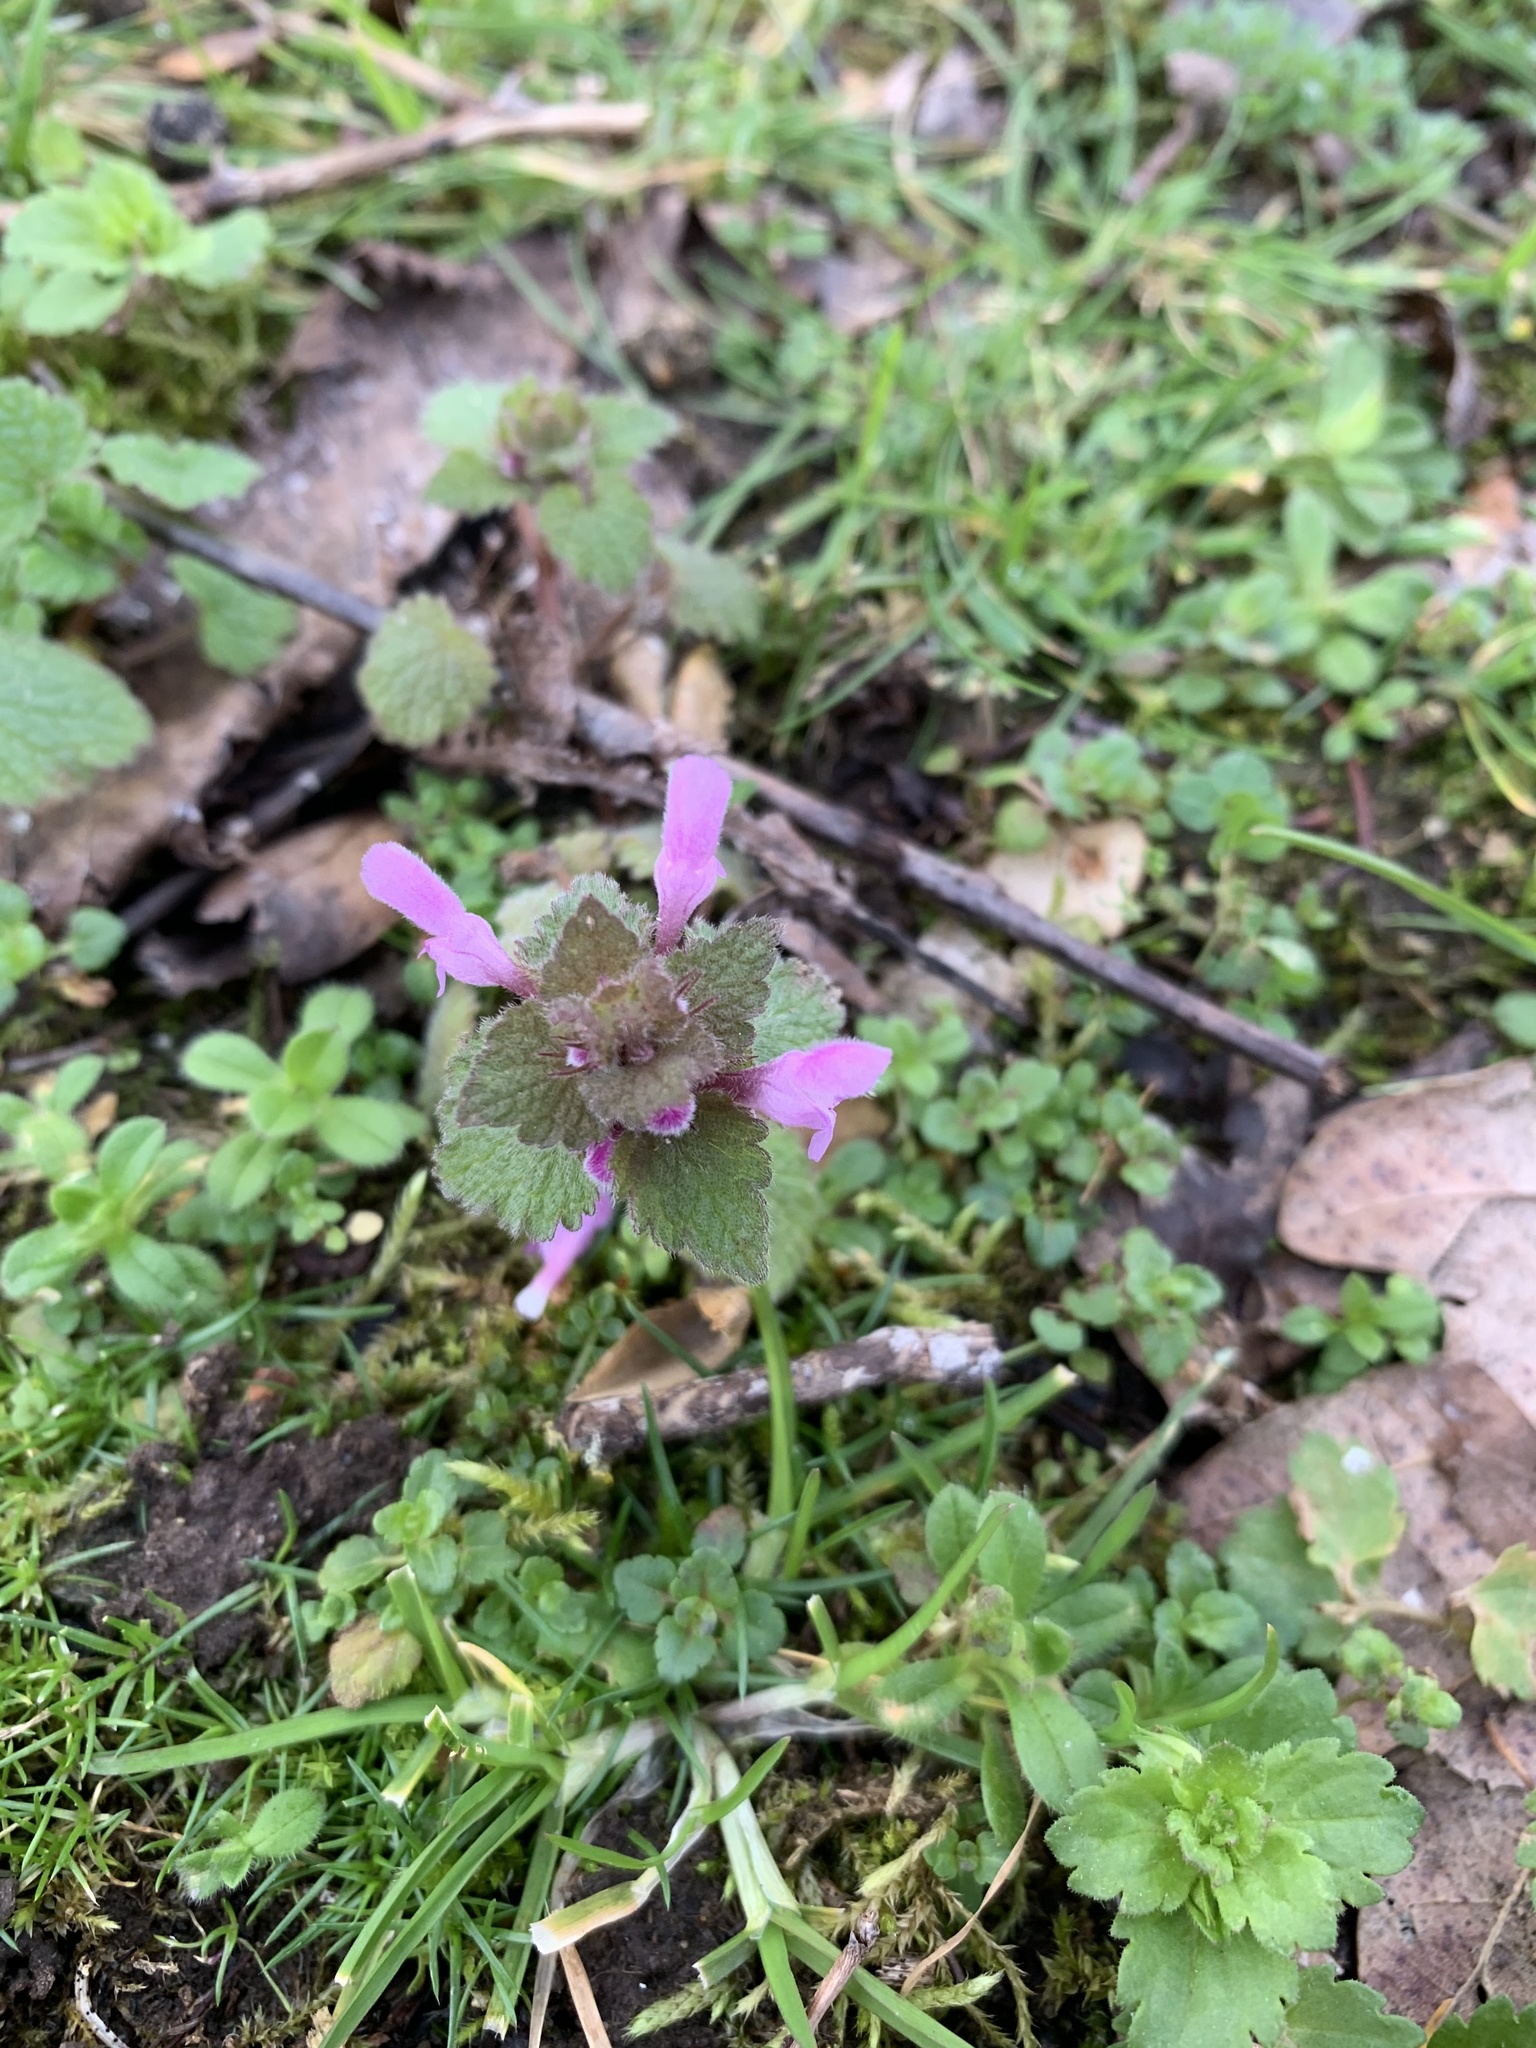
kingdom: Plantae
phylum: Tracheophyta
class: Magnoliopsida
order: Lamiales
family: Lamiaceae
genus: Lamium
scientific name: Lamium purpureum
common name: Red dead-nettle
